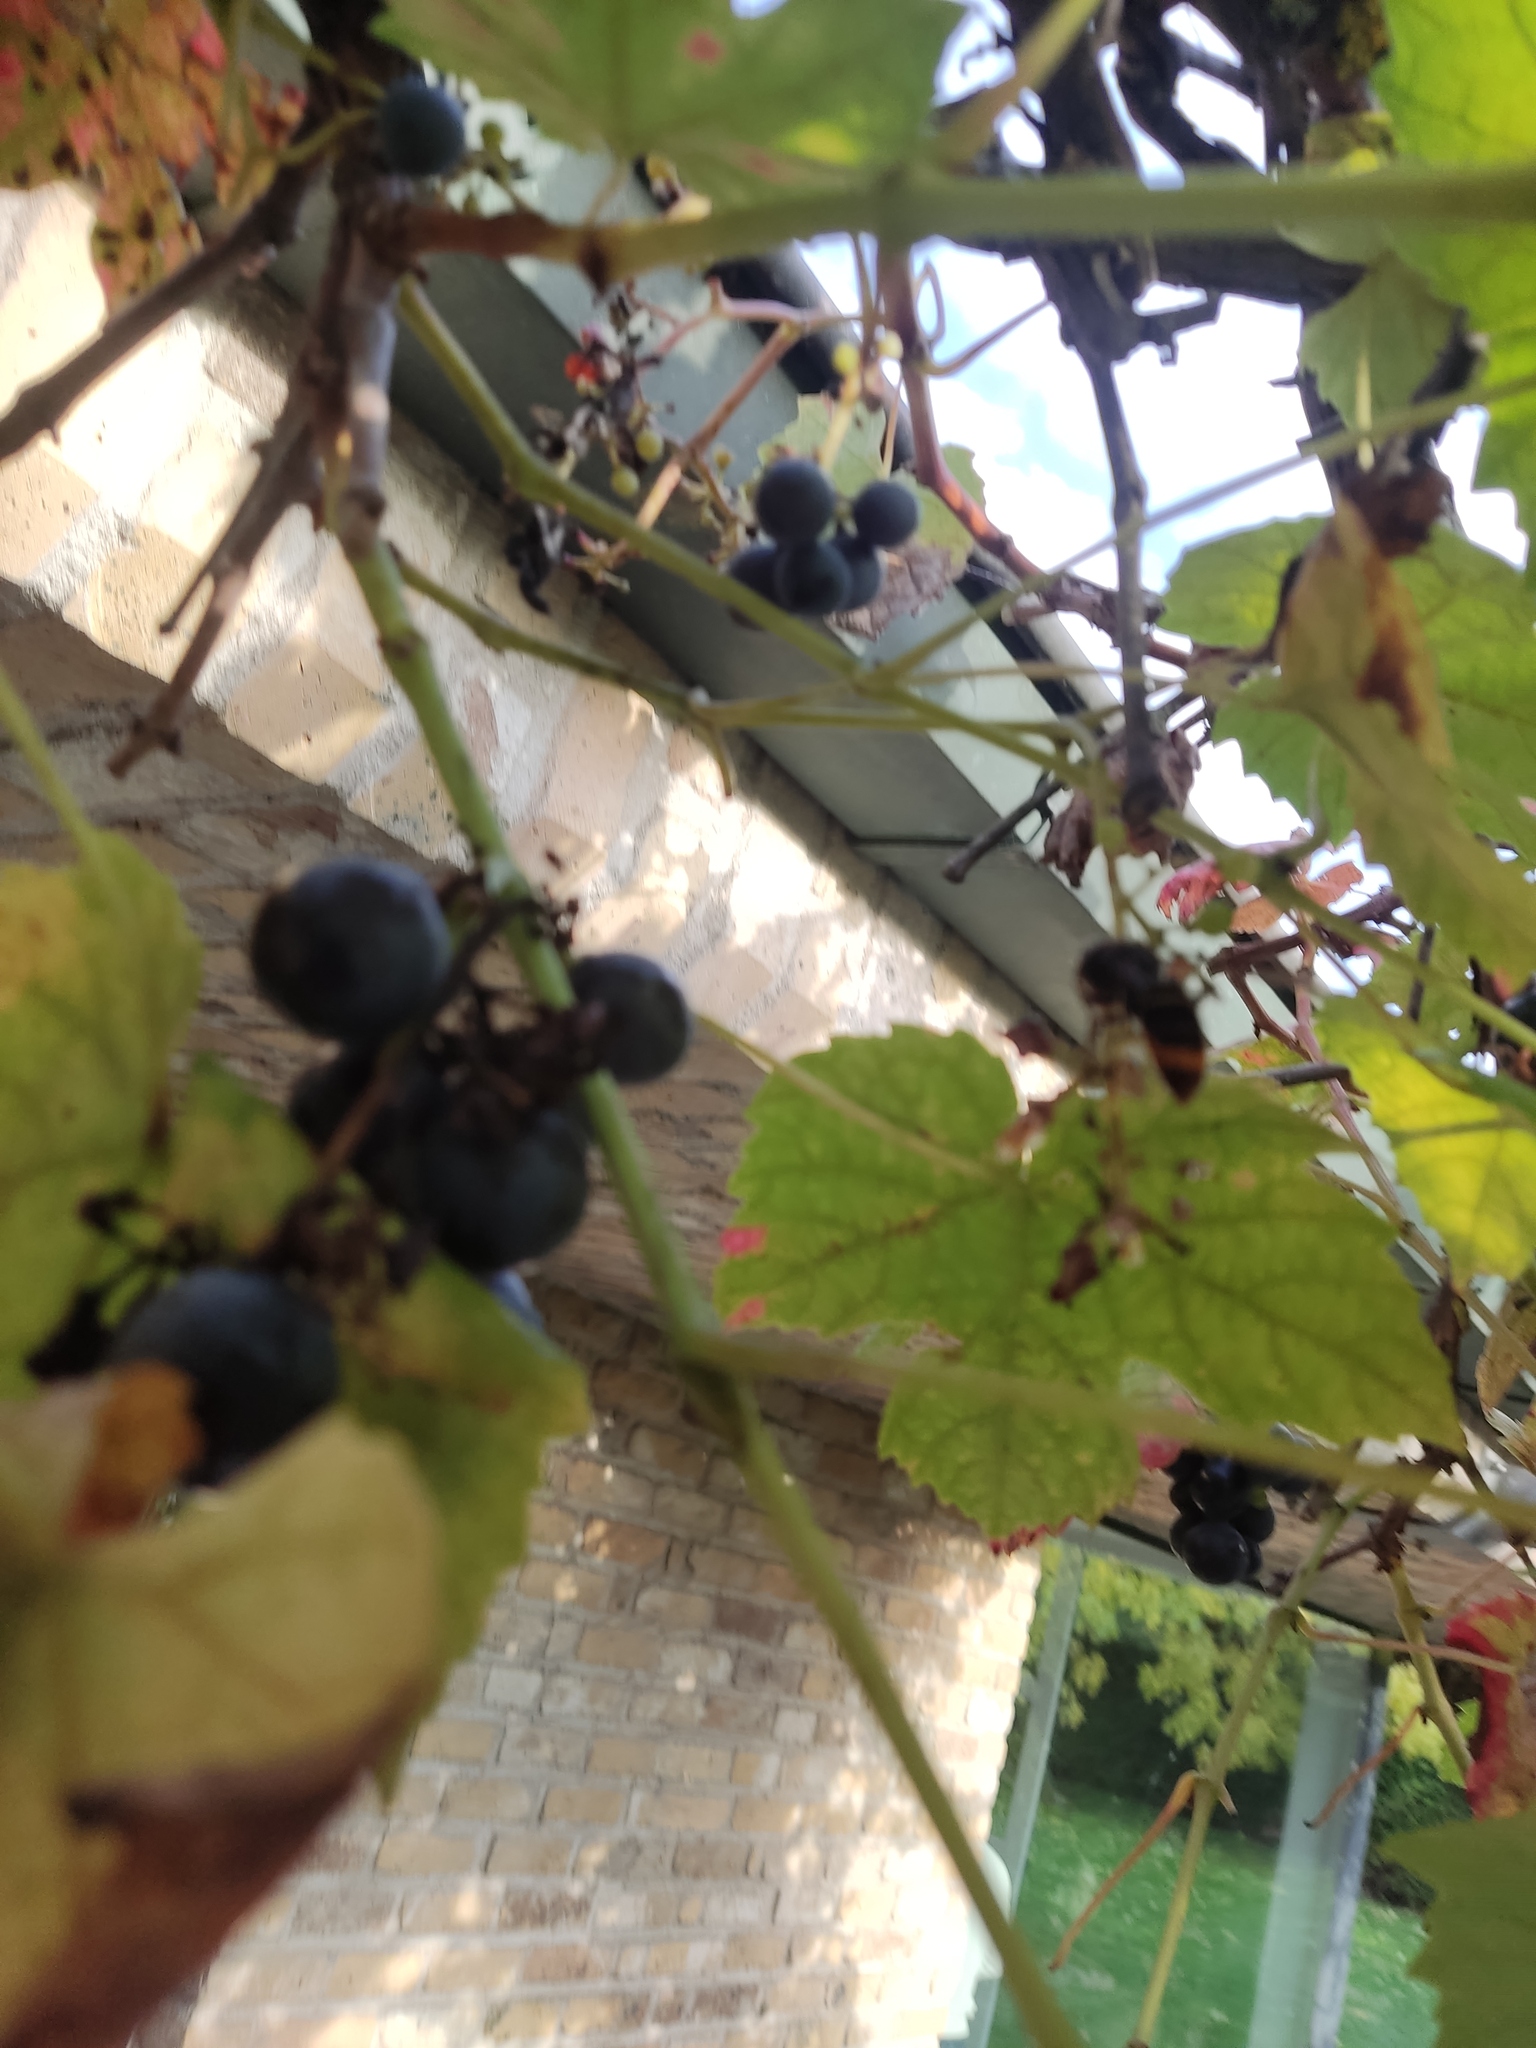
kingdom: Animalia
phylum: Arthropoda
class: Insecta
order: Hymenoptera
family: Vespidae
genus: Vespa
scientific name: Vespa velutina
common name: Asian hornet
